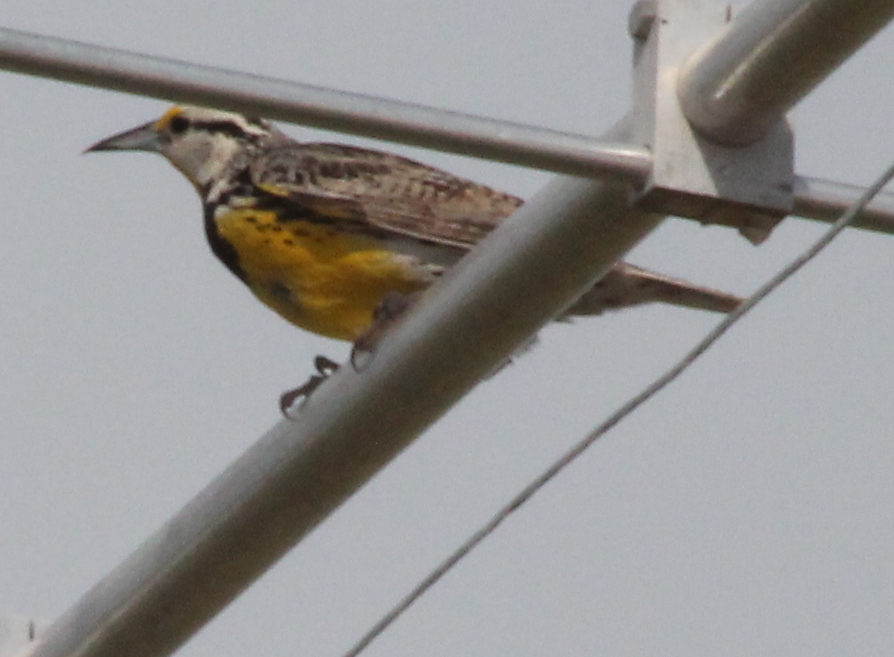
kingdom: Animalia
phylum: Chordata
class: Aves
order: Passeriformes
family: Icteridae
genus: Sturnella
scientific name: Sturnella magna
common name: Eastern meadowlark
